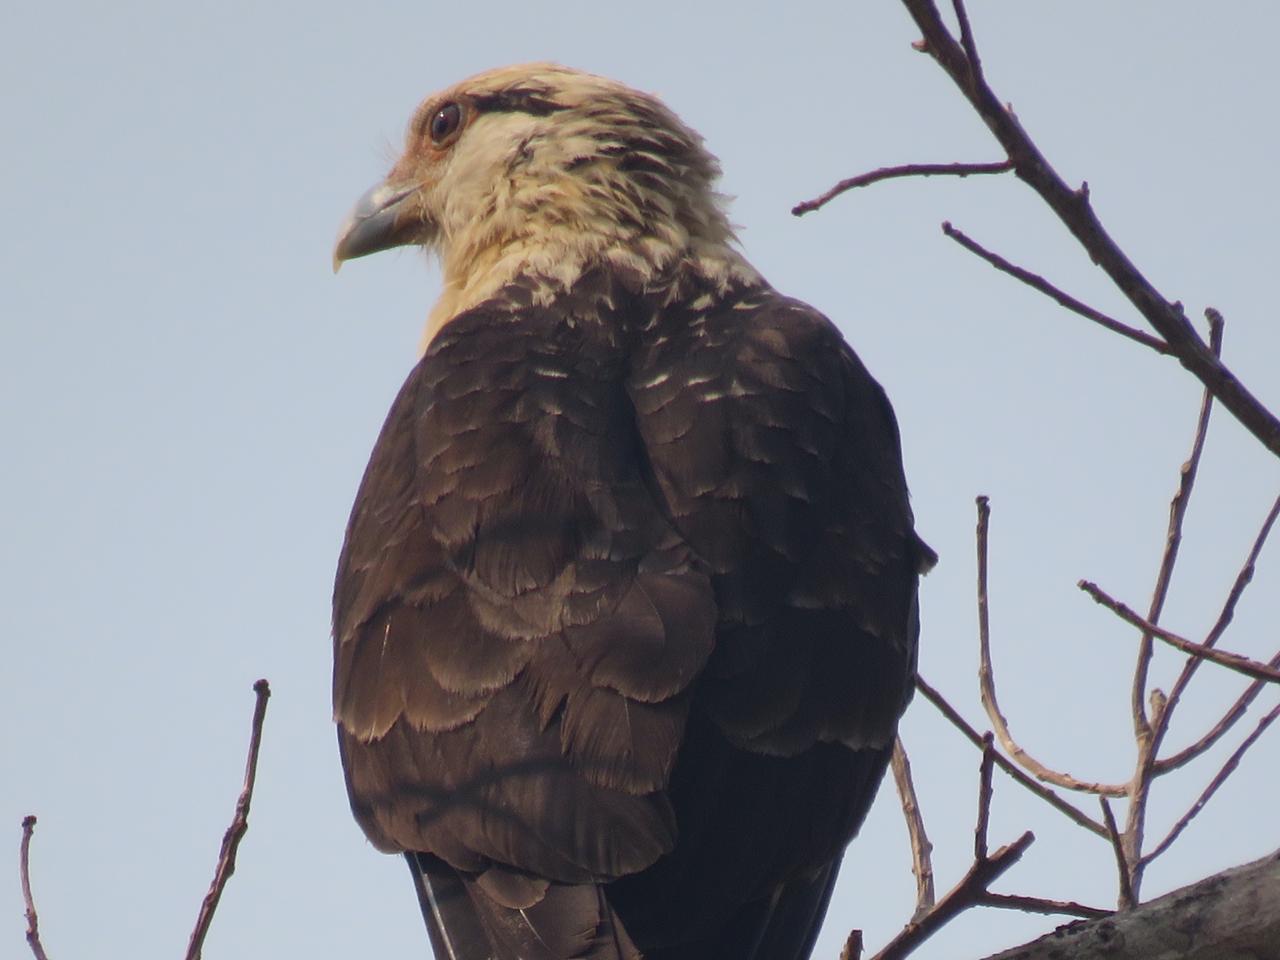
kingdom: Animalia
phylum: Chordata
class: Aves
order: Falconiformes
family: Falconidae
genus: Daptrius
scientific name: Daptrius
